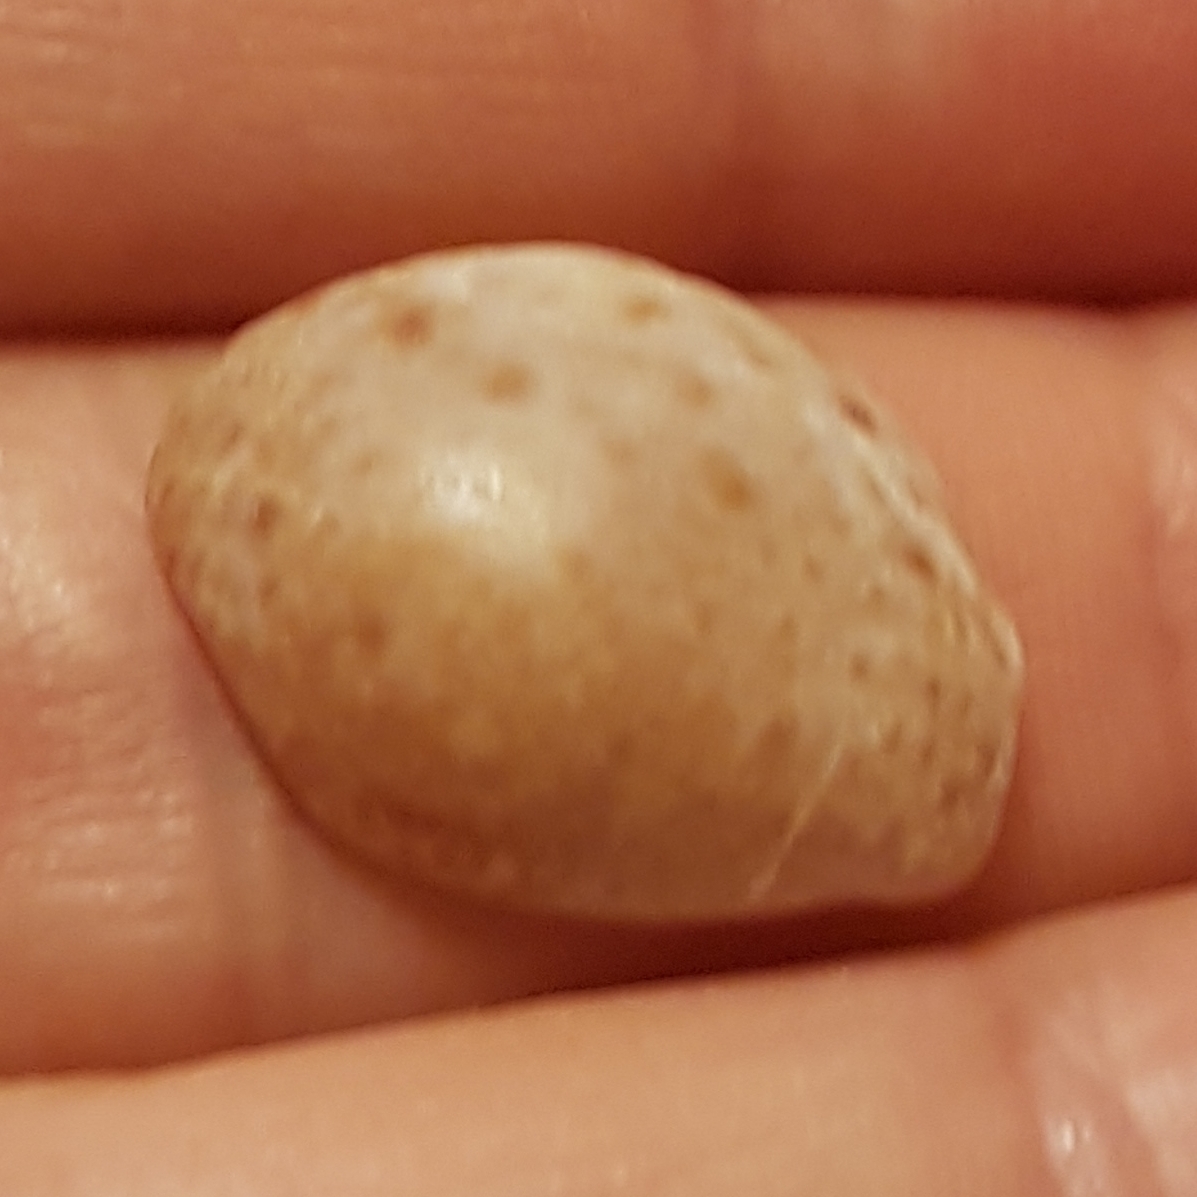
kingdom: Animalia
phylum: Mollusca
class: Gastropoda
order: Littorinimorpha
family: Cypraeidae
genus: Naria
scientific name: Naria spurca
